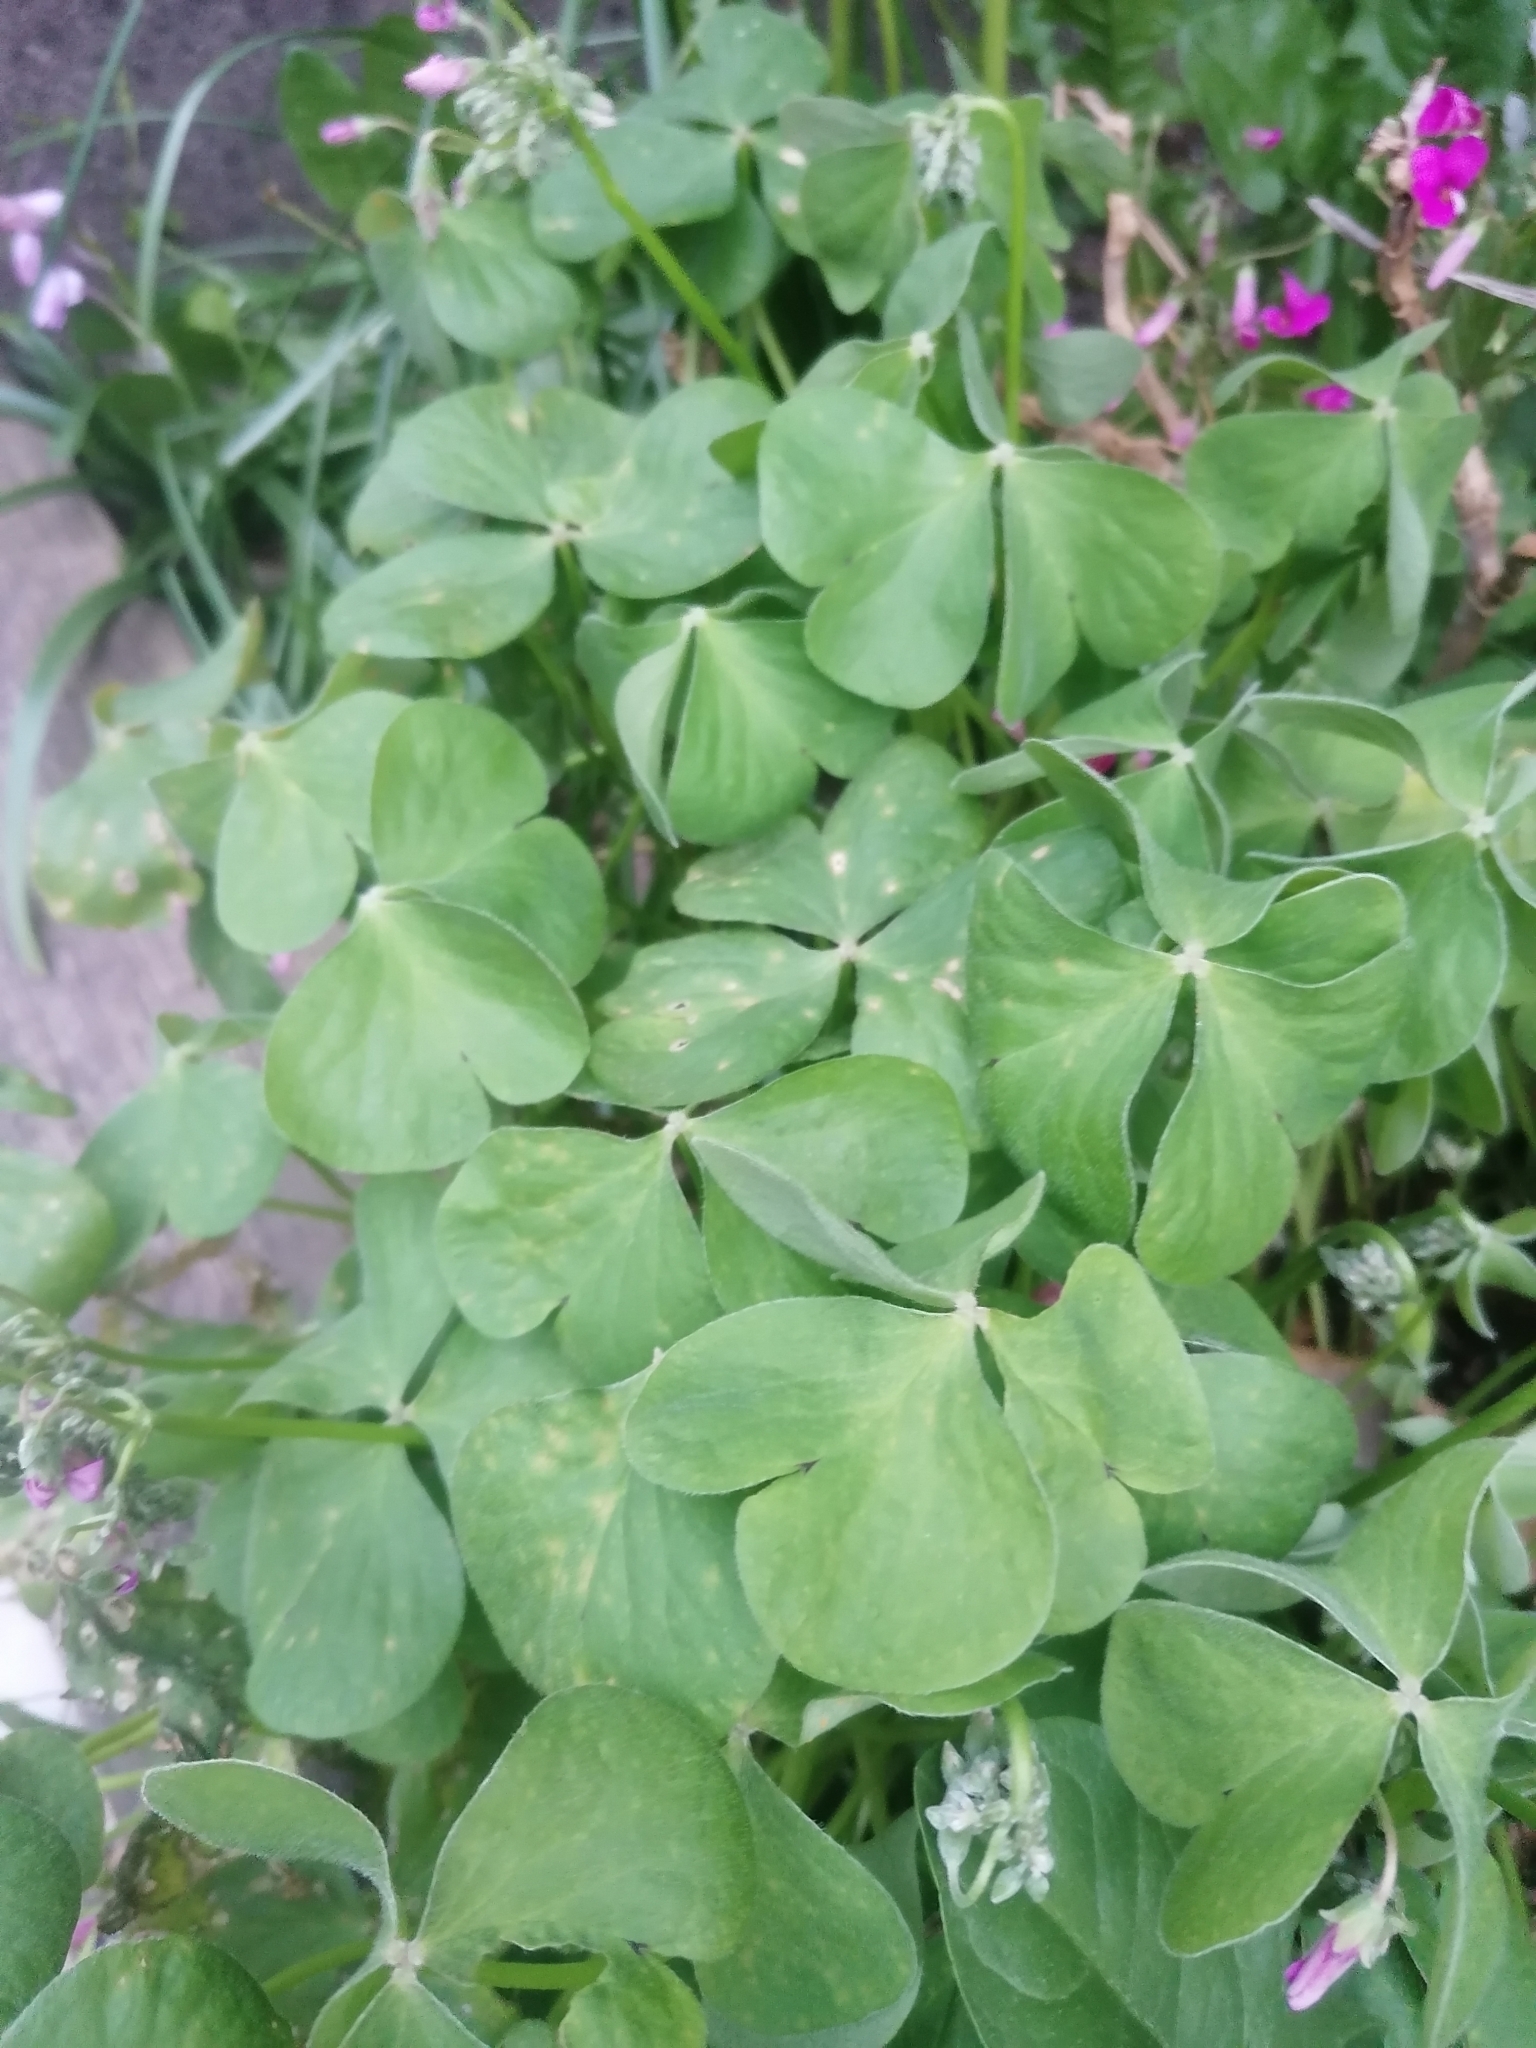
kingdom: Plantae
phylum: Tracheophyta
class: Magnoliopsida
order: Oxalidales
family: Oxalidaceae
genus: Oxalis
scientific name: Oxalis articulata
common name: Pink-sorrel
